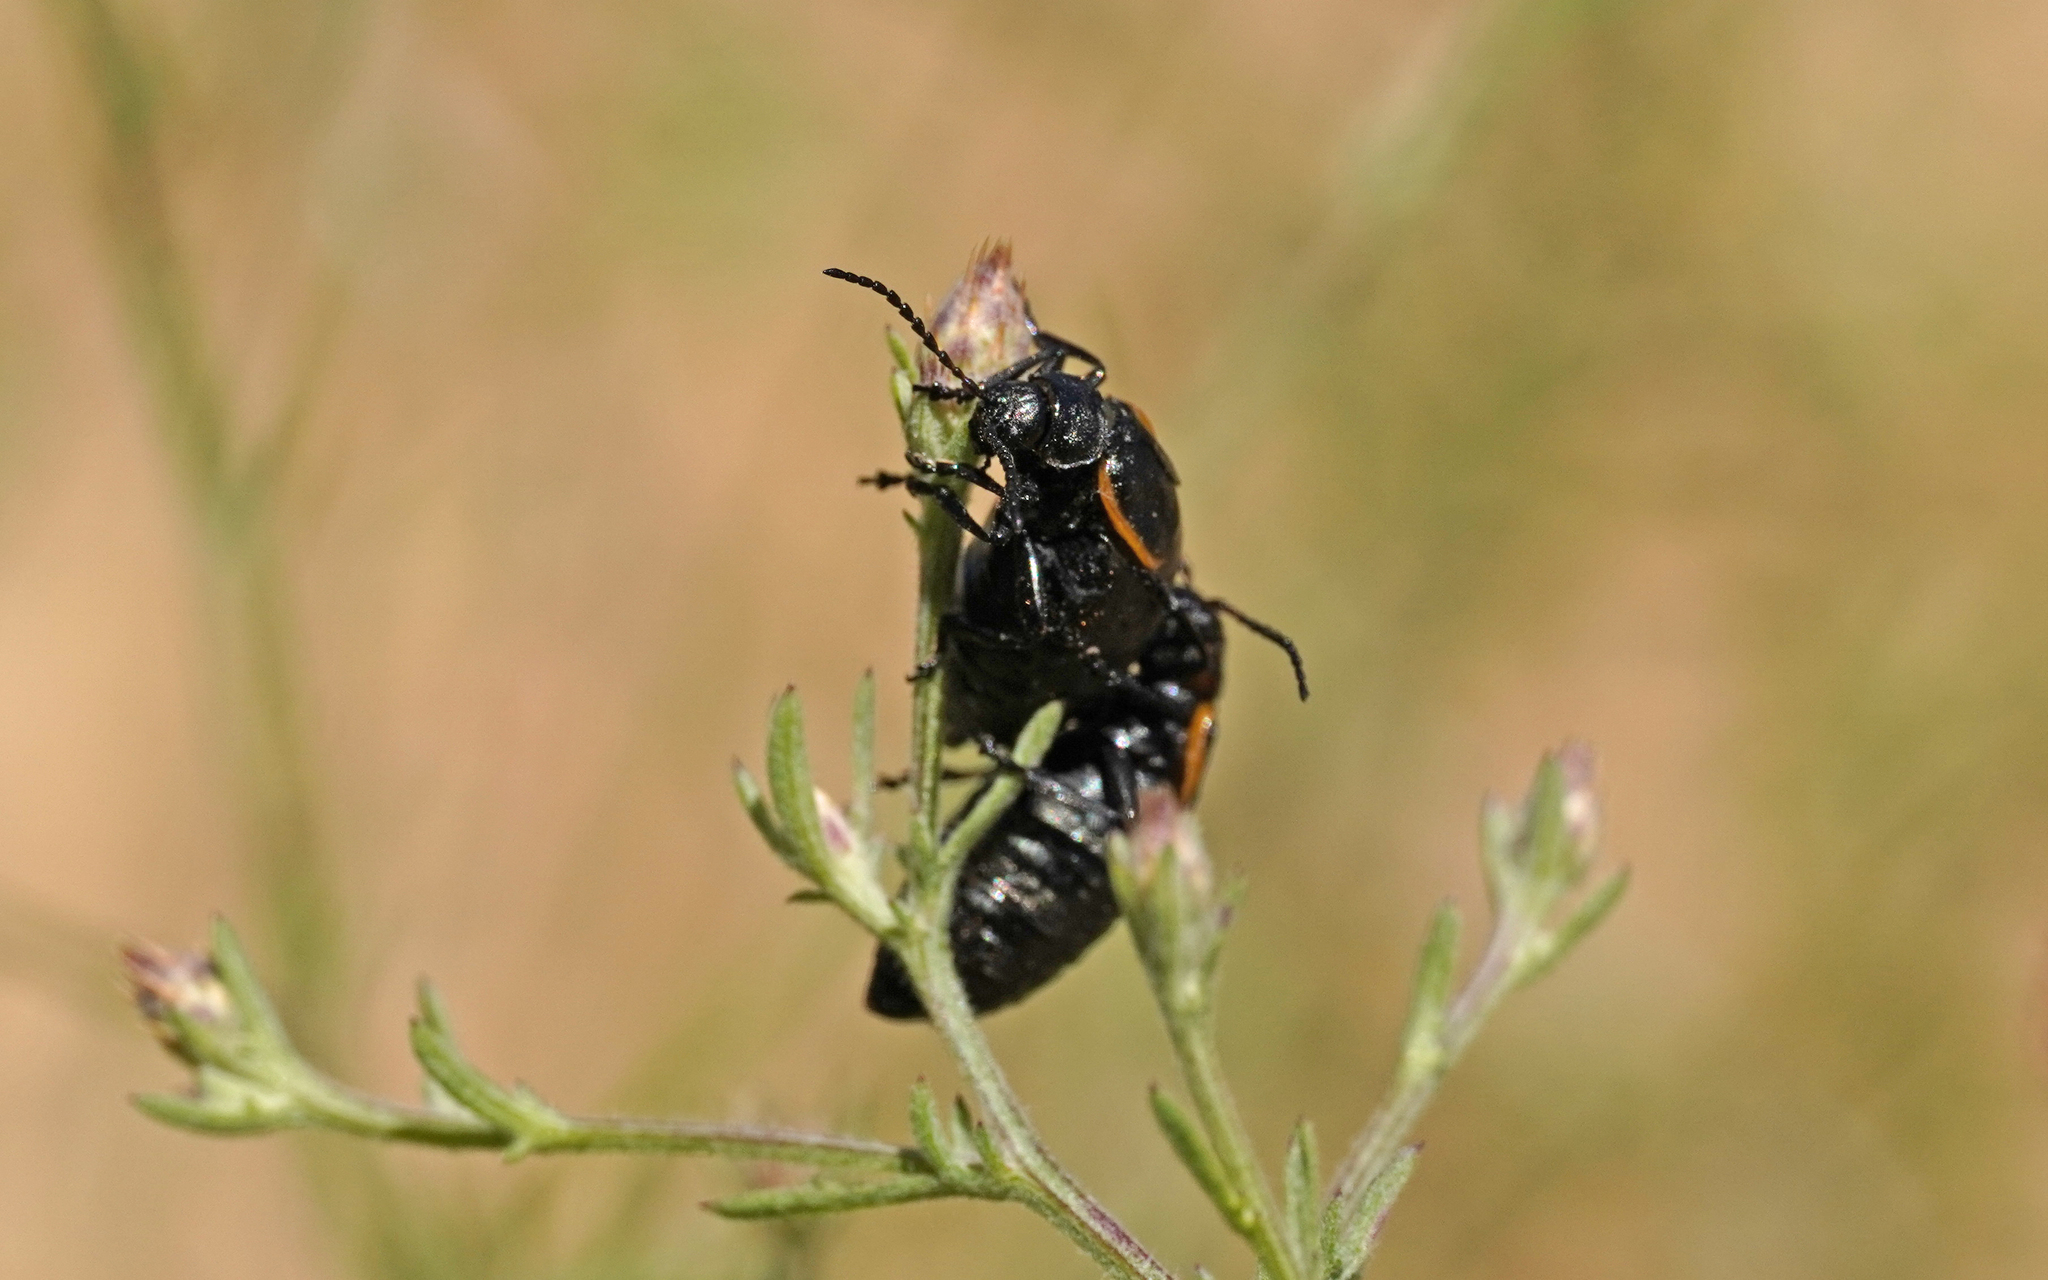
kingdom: Animalia
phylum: Arthropoda
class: Insecta
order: Coleoptera
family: Chrysomelidae
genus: Arima
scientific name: Arima marginata
